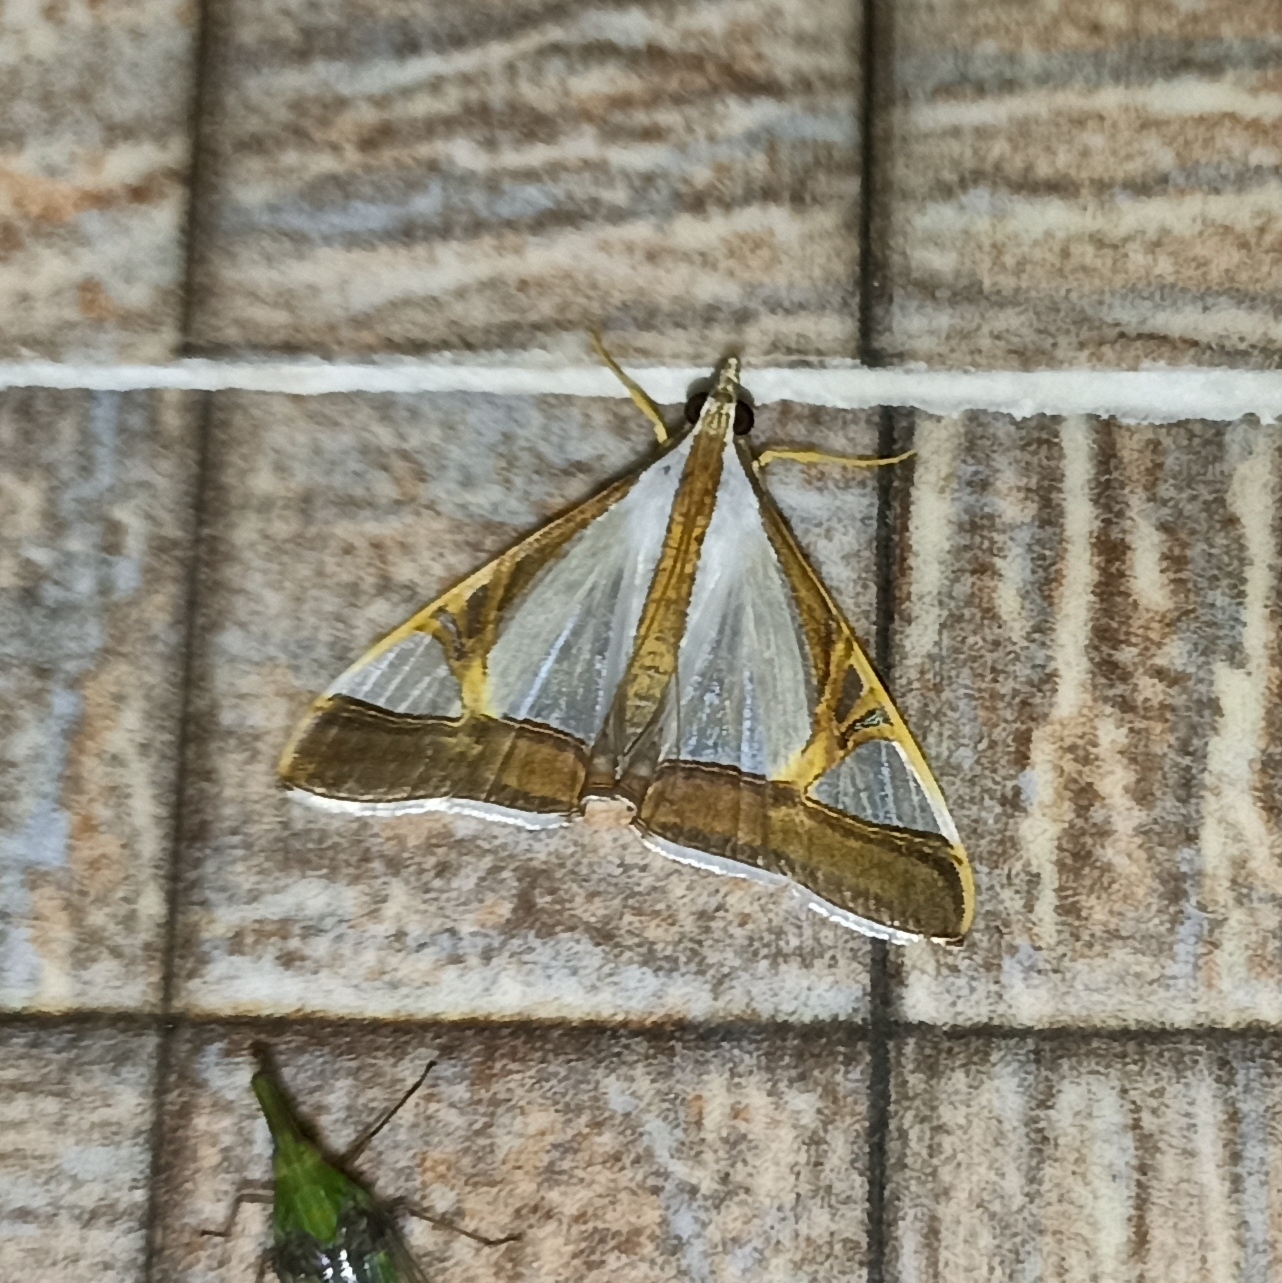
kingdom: Animalia
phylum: Arthropoda
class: Insecta
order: Lepidoptera
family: Crambidae
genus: Agrioglypta
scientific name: Agrioglypta eurytusalis
